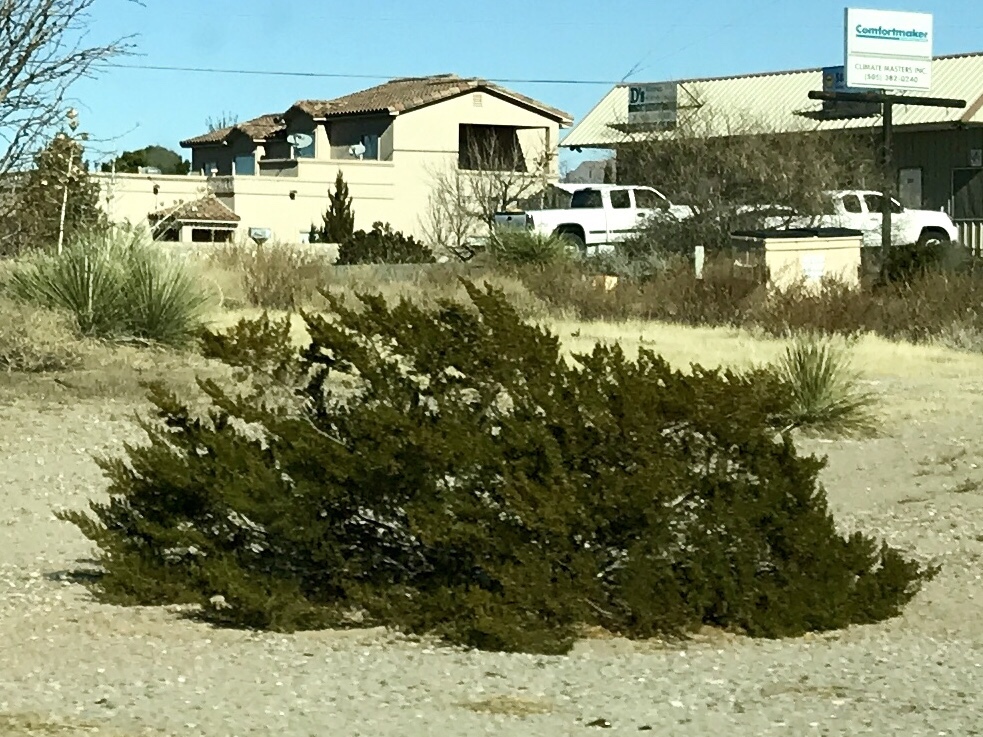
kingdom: Plantae
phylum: Tracheophyta
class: Magnoliopsida
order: Zygophyllales
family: Zygophyllaceae
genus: Larrea
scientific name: Larrea tridentata
